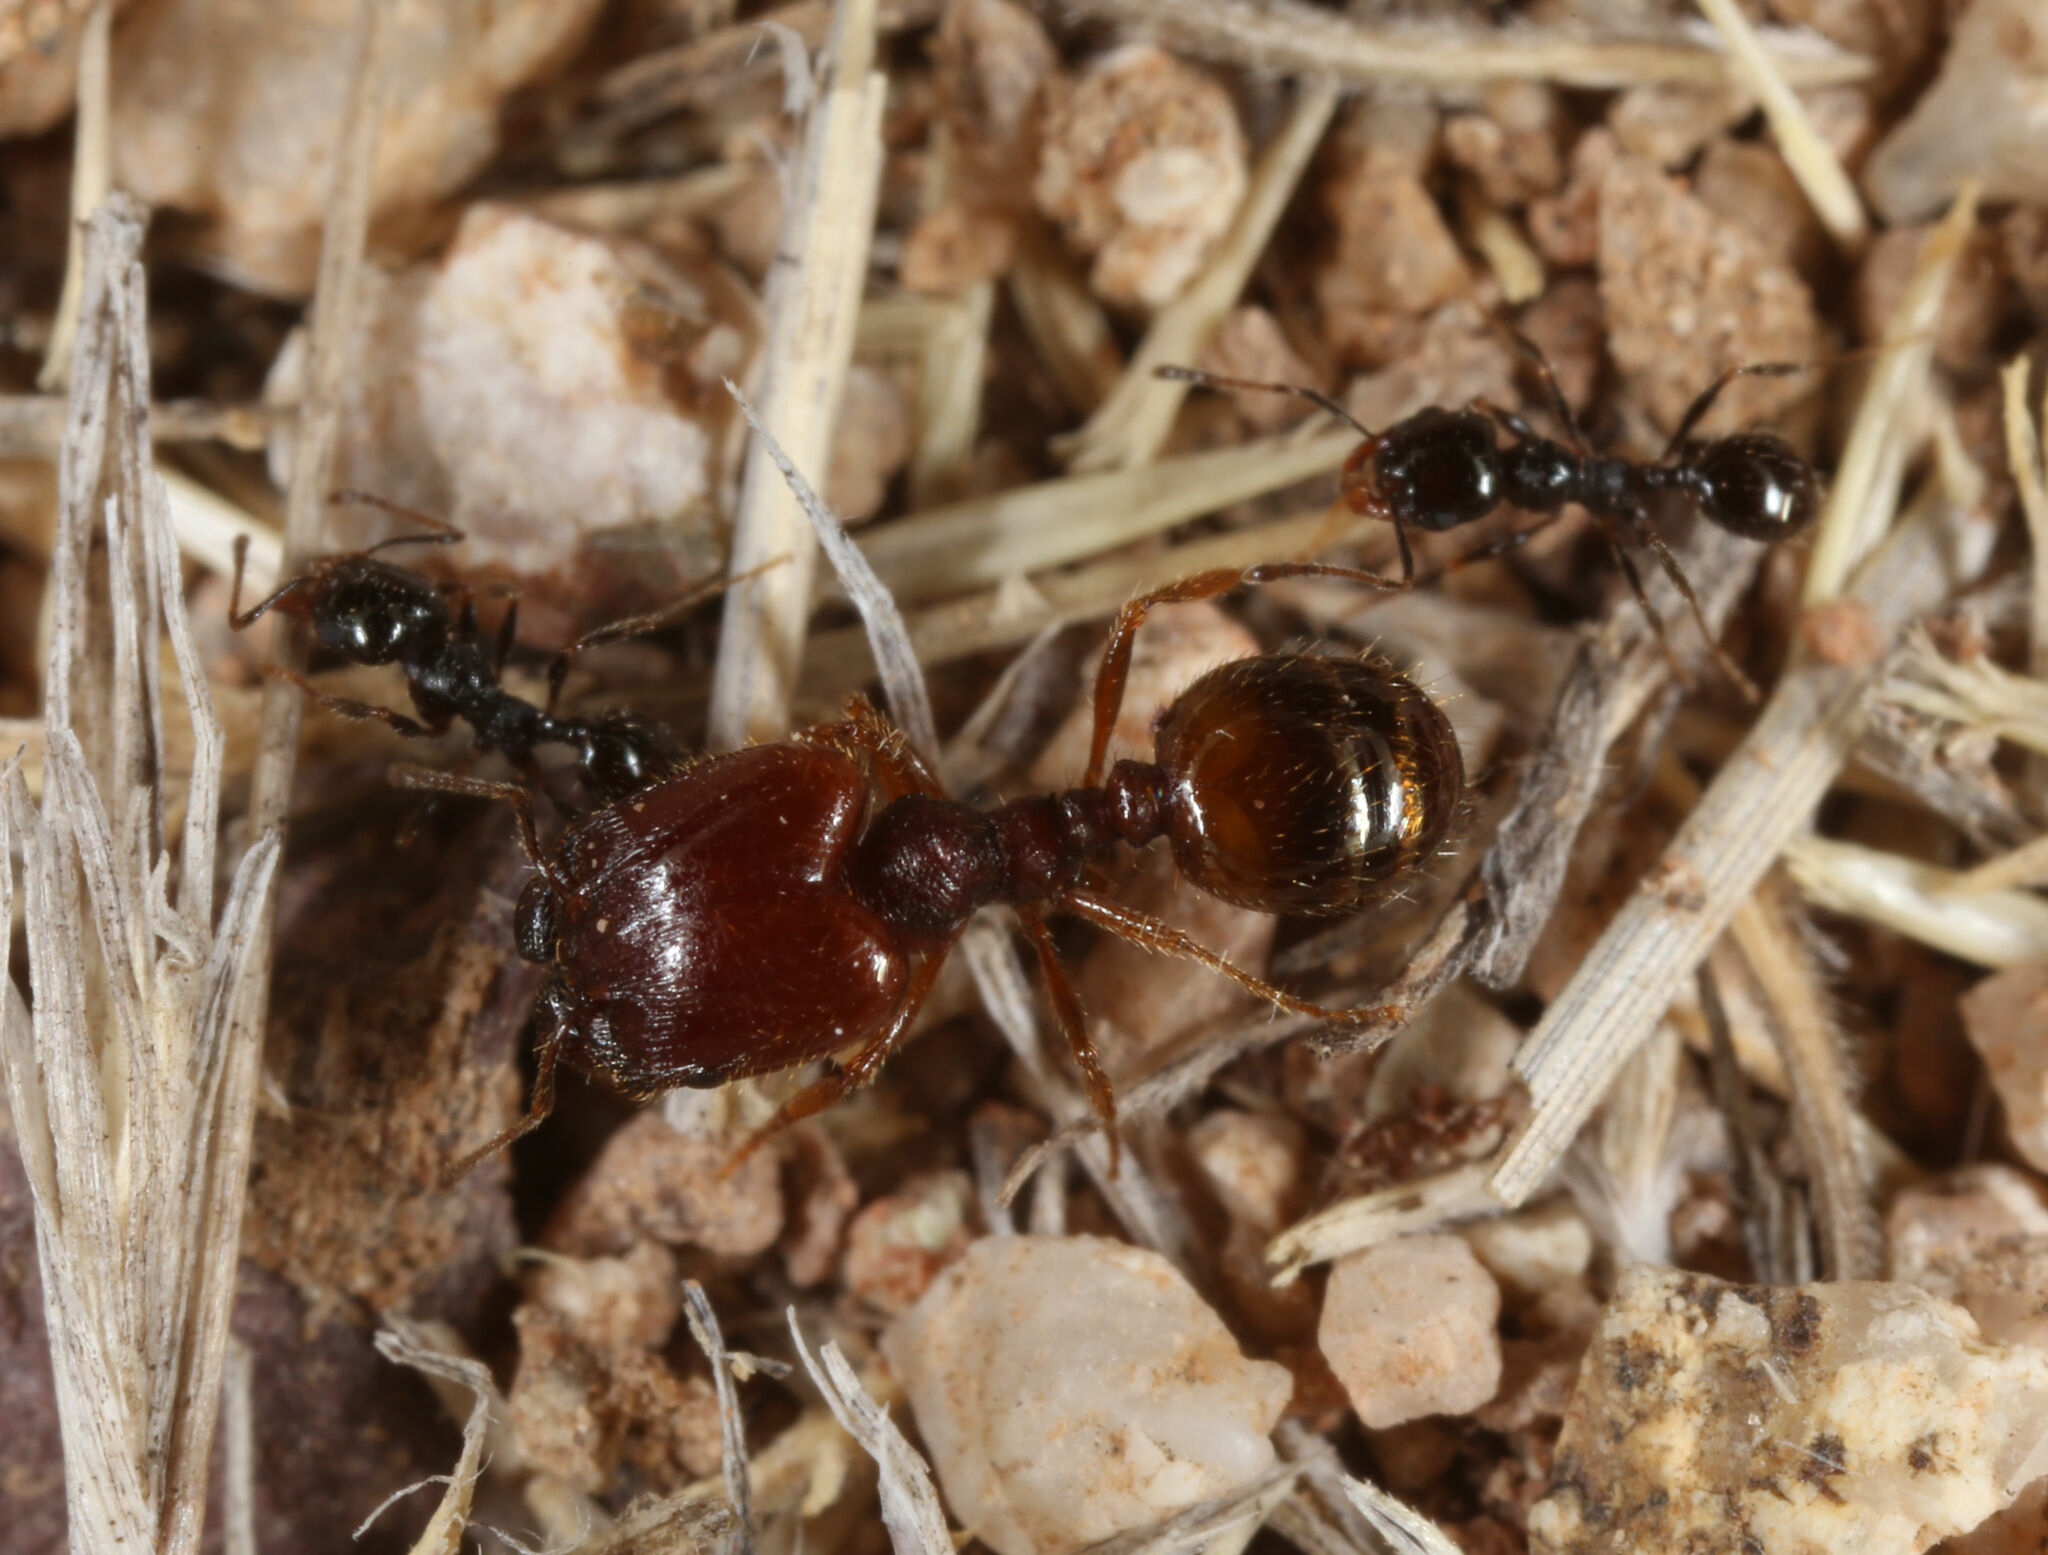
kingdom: Animalia
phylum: Arthropoda
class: Insecta
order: Hymenoptera
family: Formicidae
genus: Pheidole
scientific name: Pheidole xerophila
